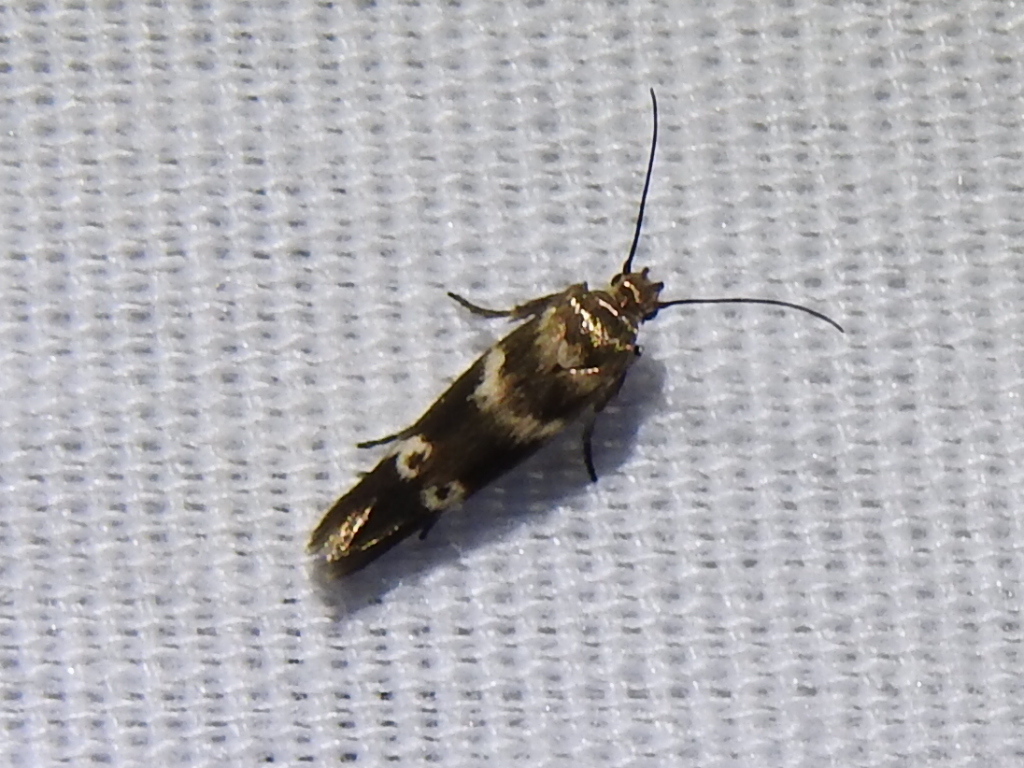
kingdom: Animalia
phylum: Arthropoda
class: Insecta
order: Lepidoptera
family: Scythrididae
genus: Scythris
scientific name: Scythris trivinctella
